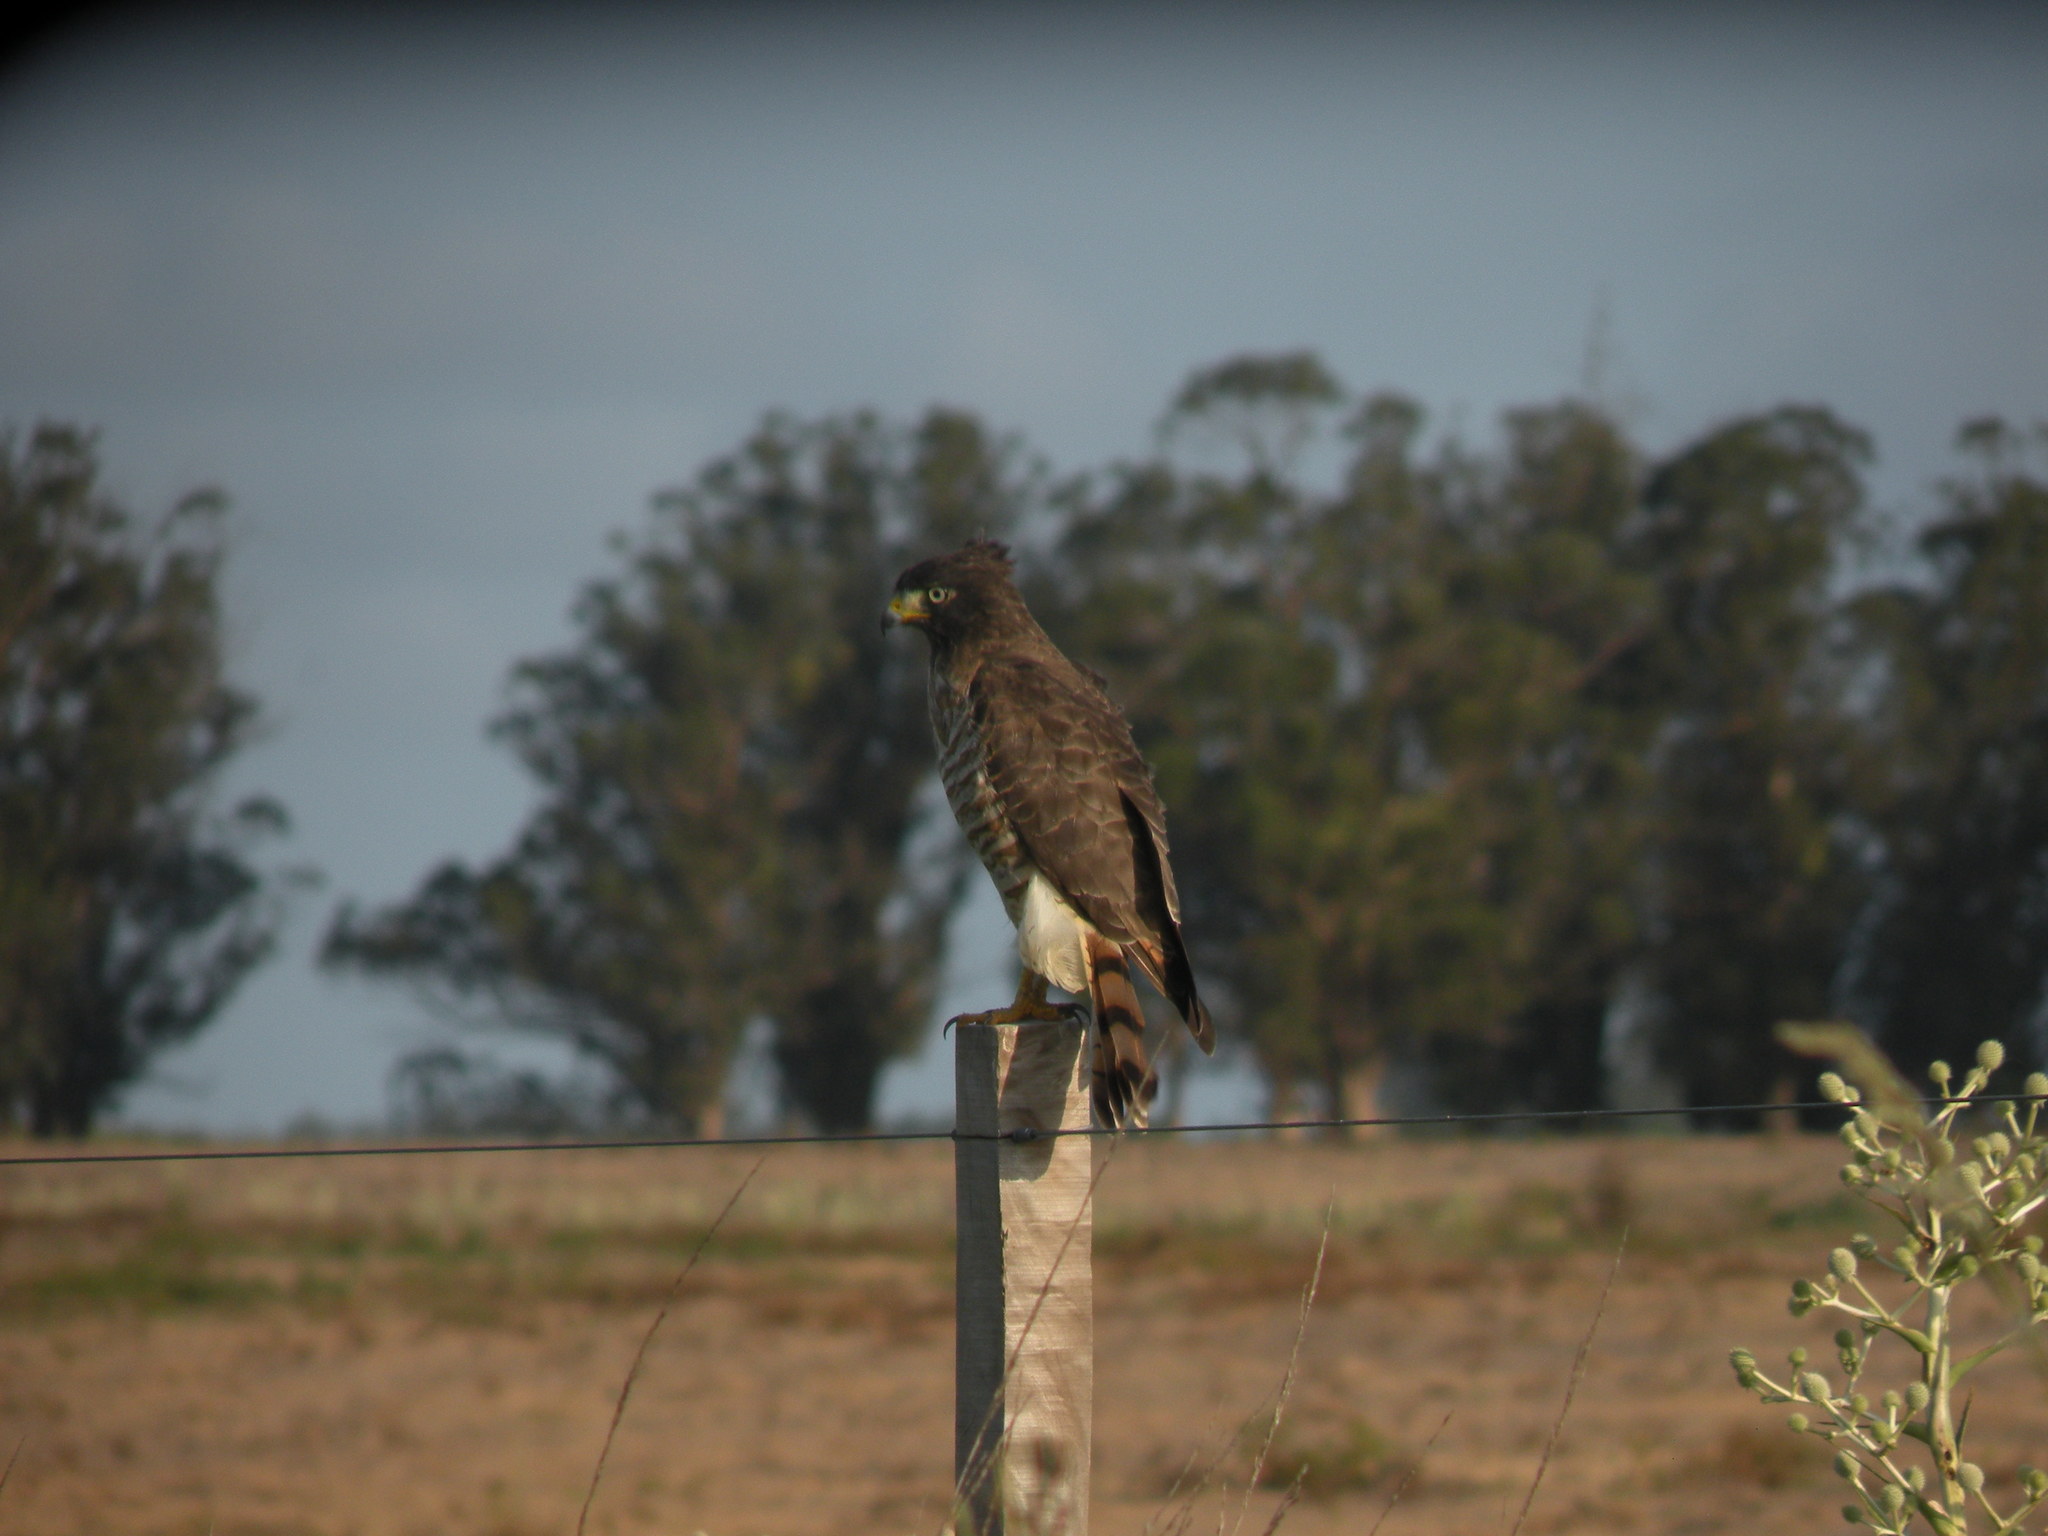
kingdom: Animalia
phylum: Chordata
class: Aves
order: Accipitriformes
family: Accipitridae
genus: Rupornis
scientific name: Rupornis magnirostris
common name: Roadside hawk
